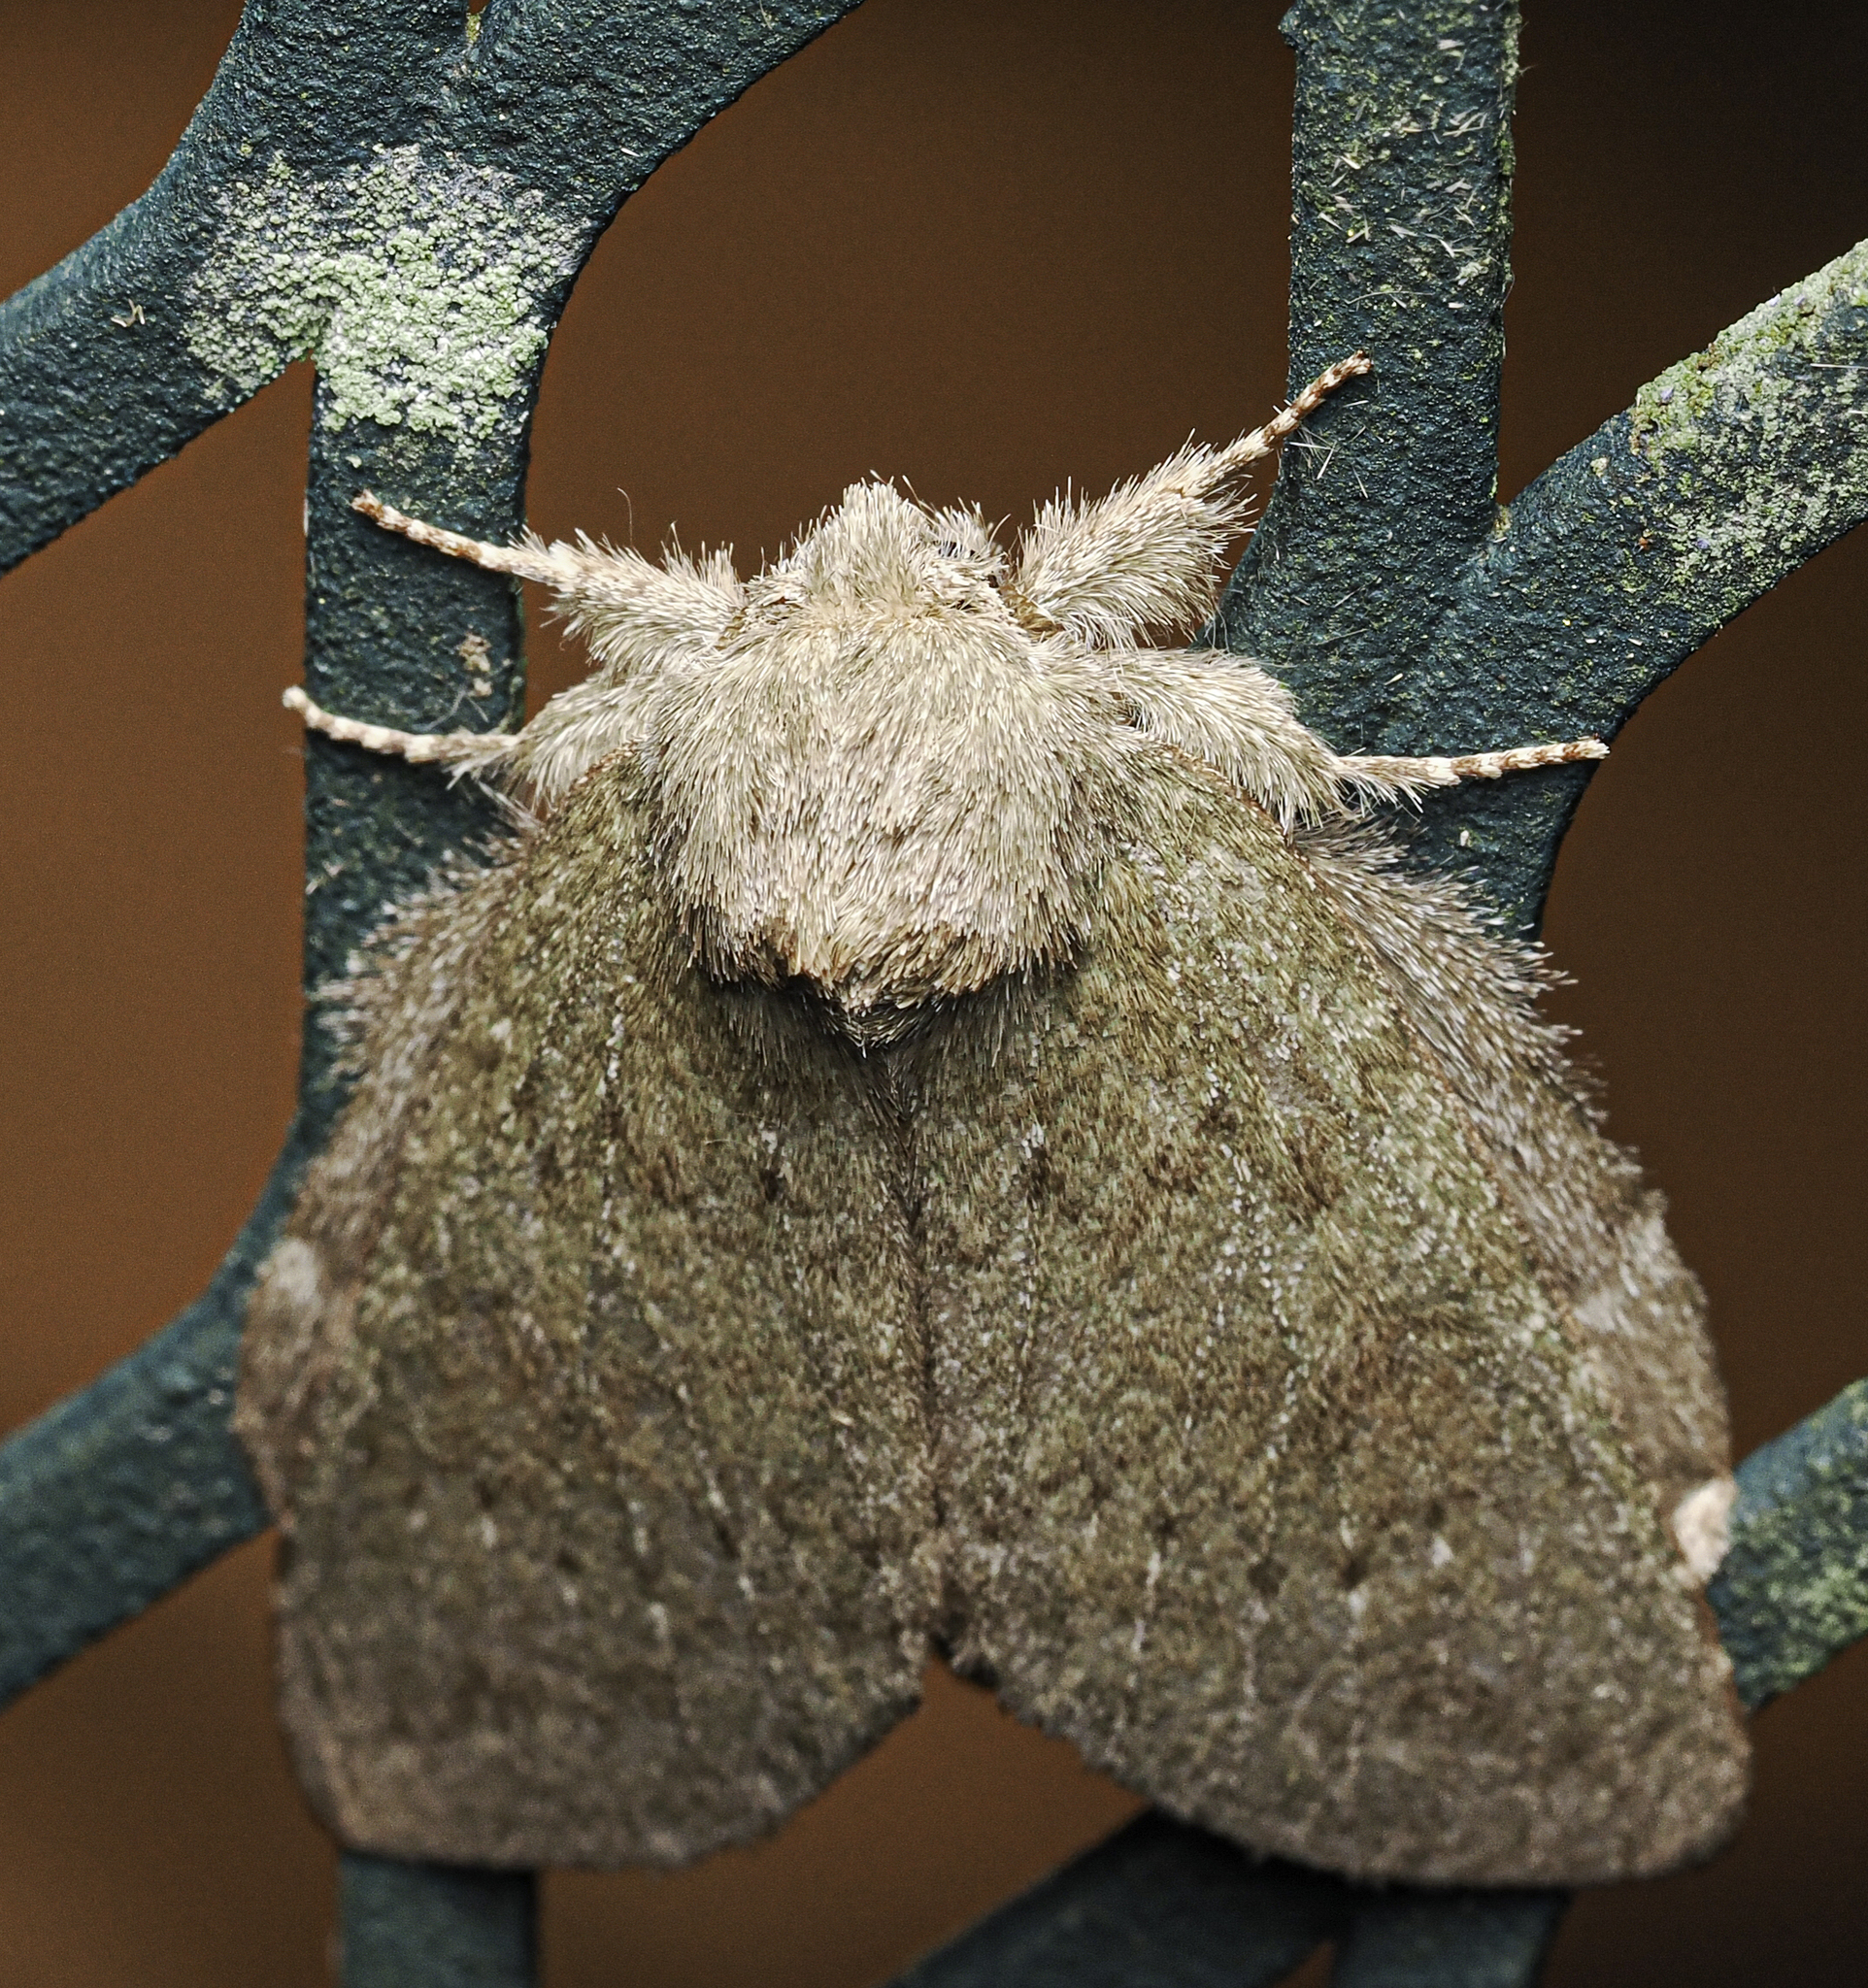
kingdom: Animalia
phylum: Arthropoda
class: Insecta
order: Lepidoptera
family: Notodontidae
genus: Misogada
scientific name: Misogada unicolor
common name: Drab prominent
